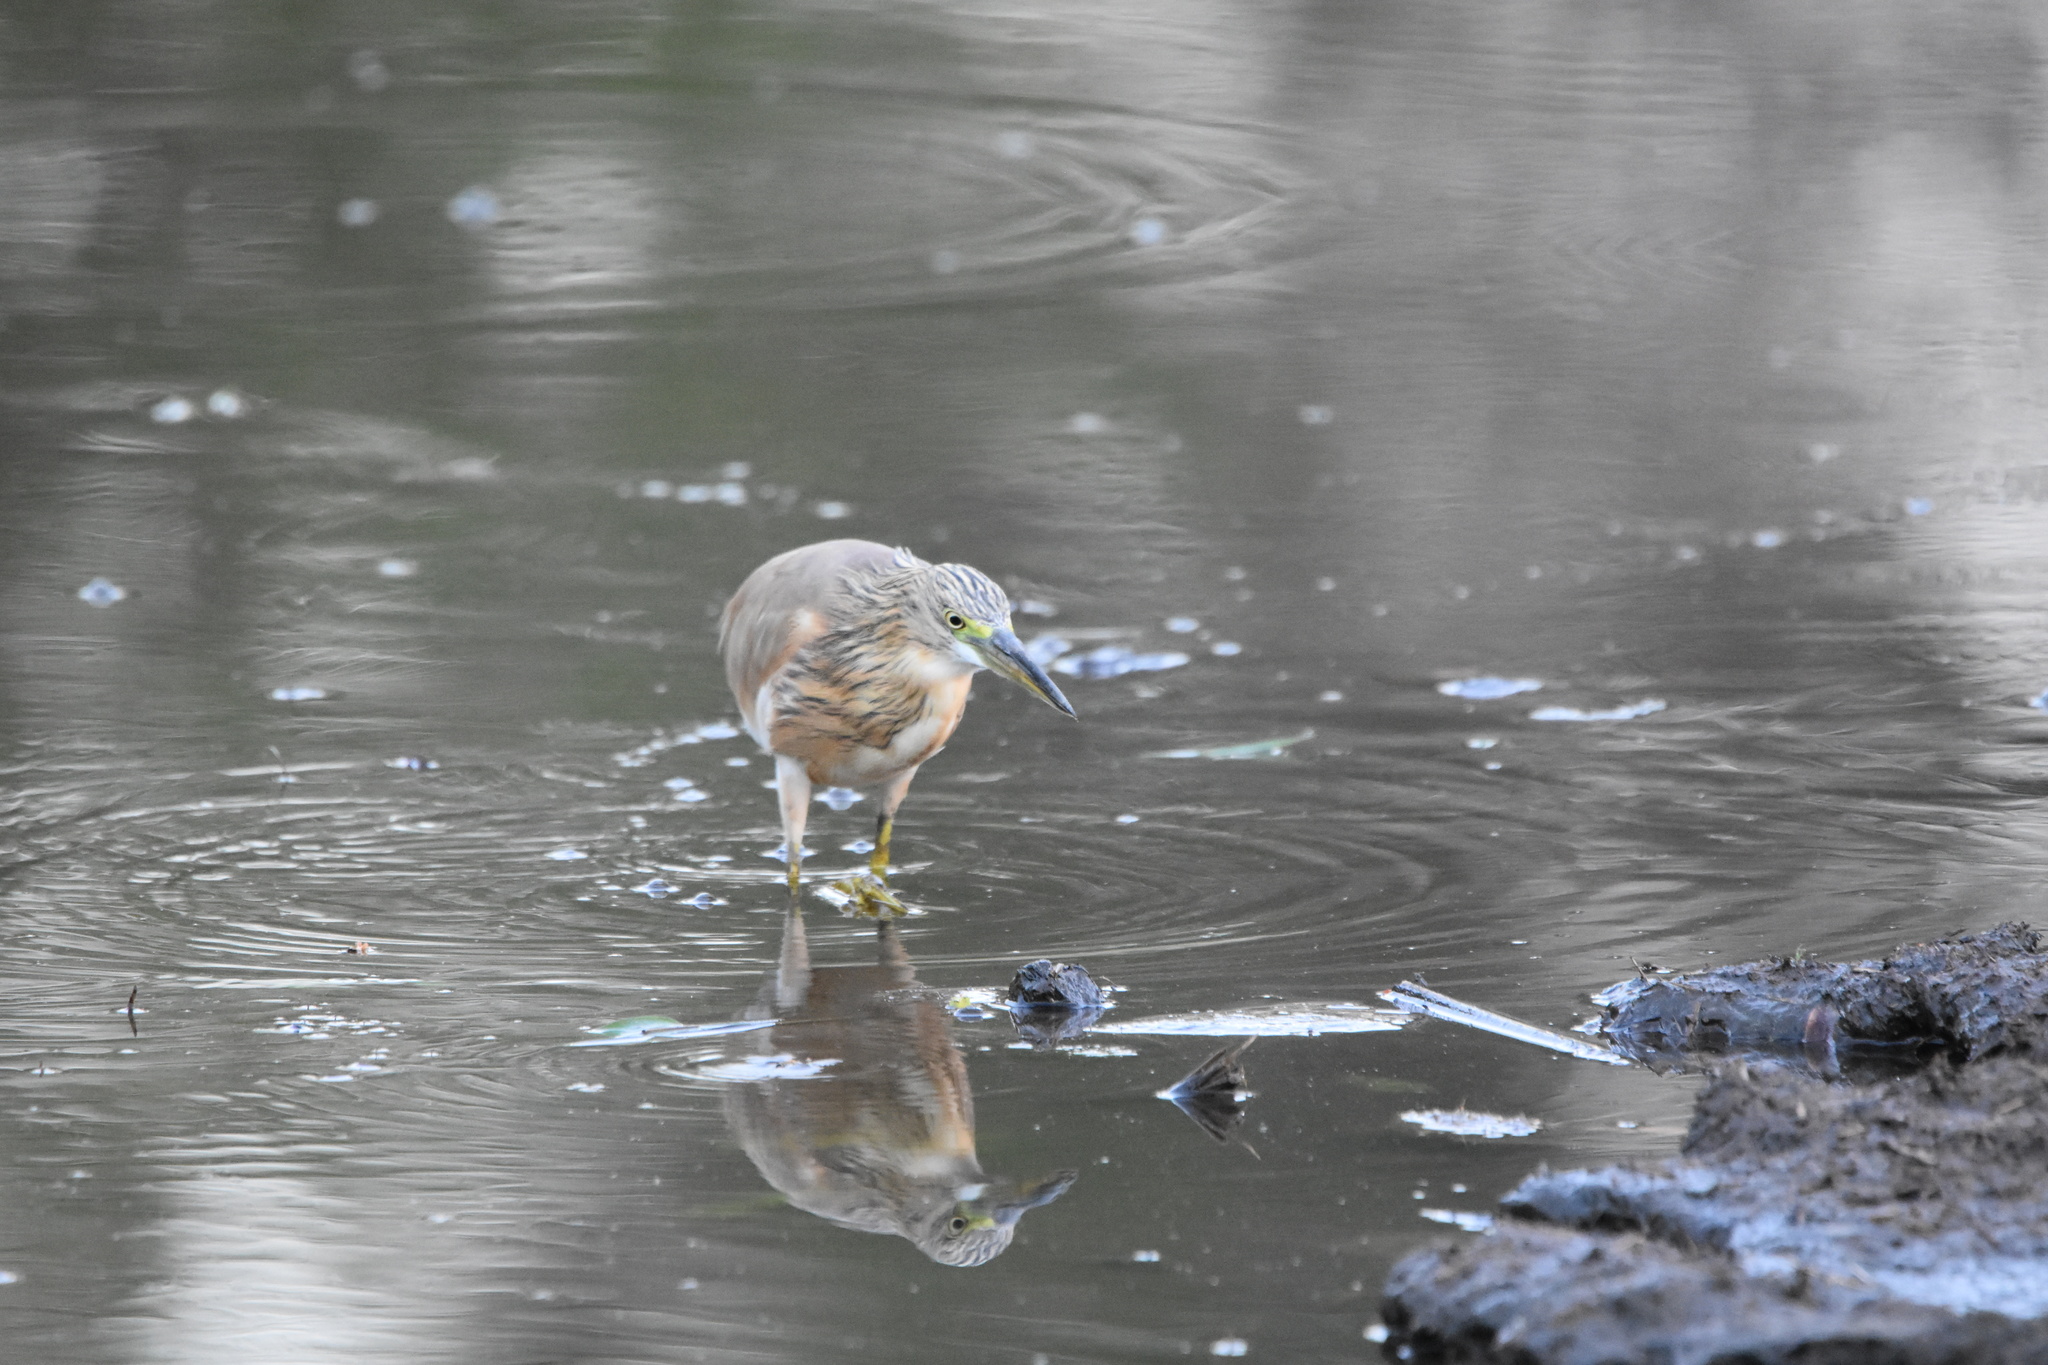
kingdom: Animalia
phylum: Chordata
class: Aves
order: Pelecaniformes
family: Ardeidae
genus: Ardeola
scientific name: Ardeola ralloides
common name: Squacco heron
